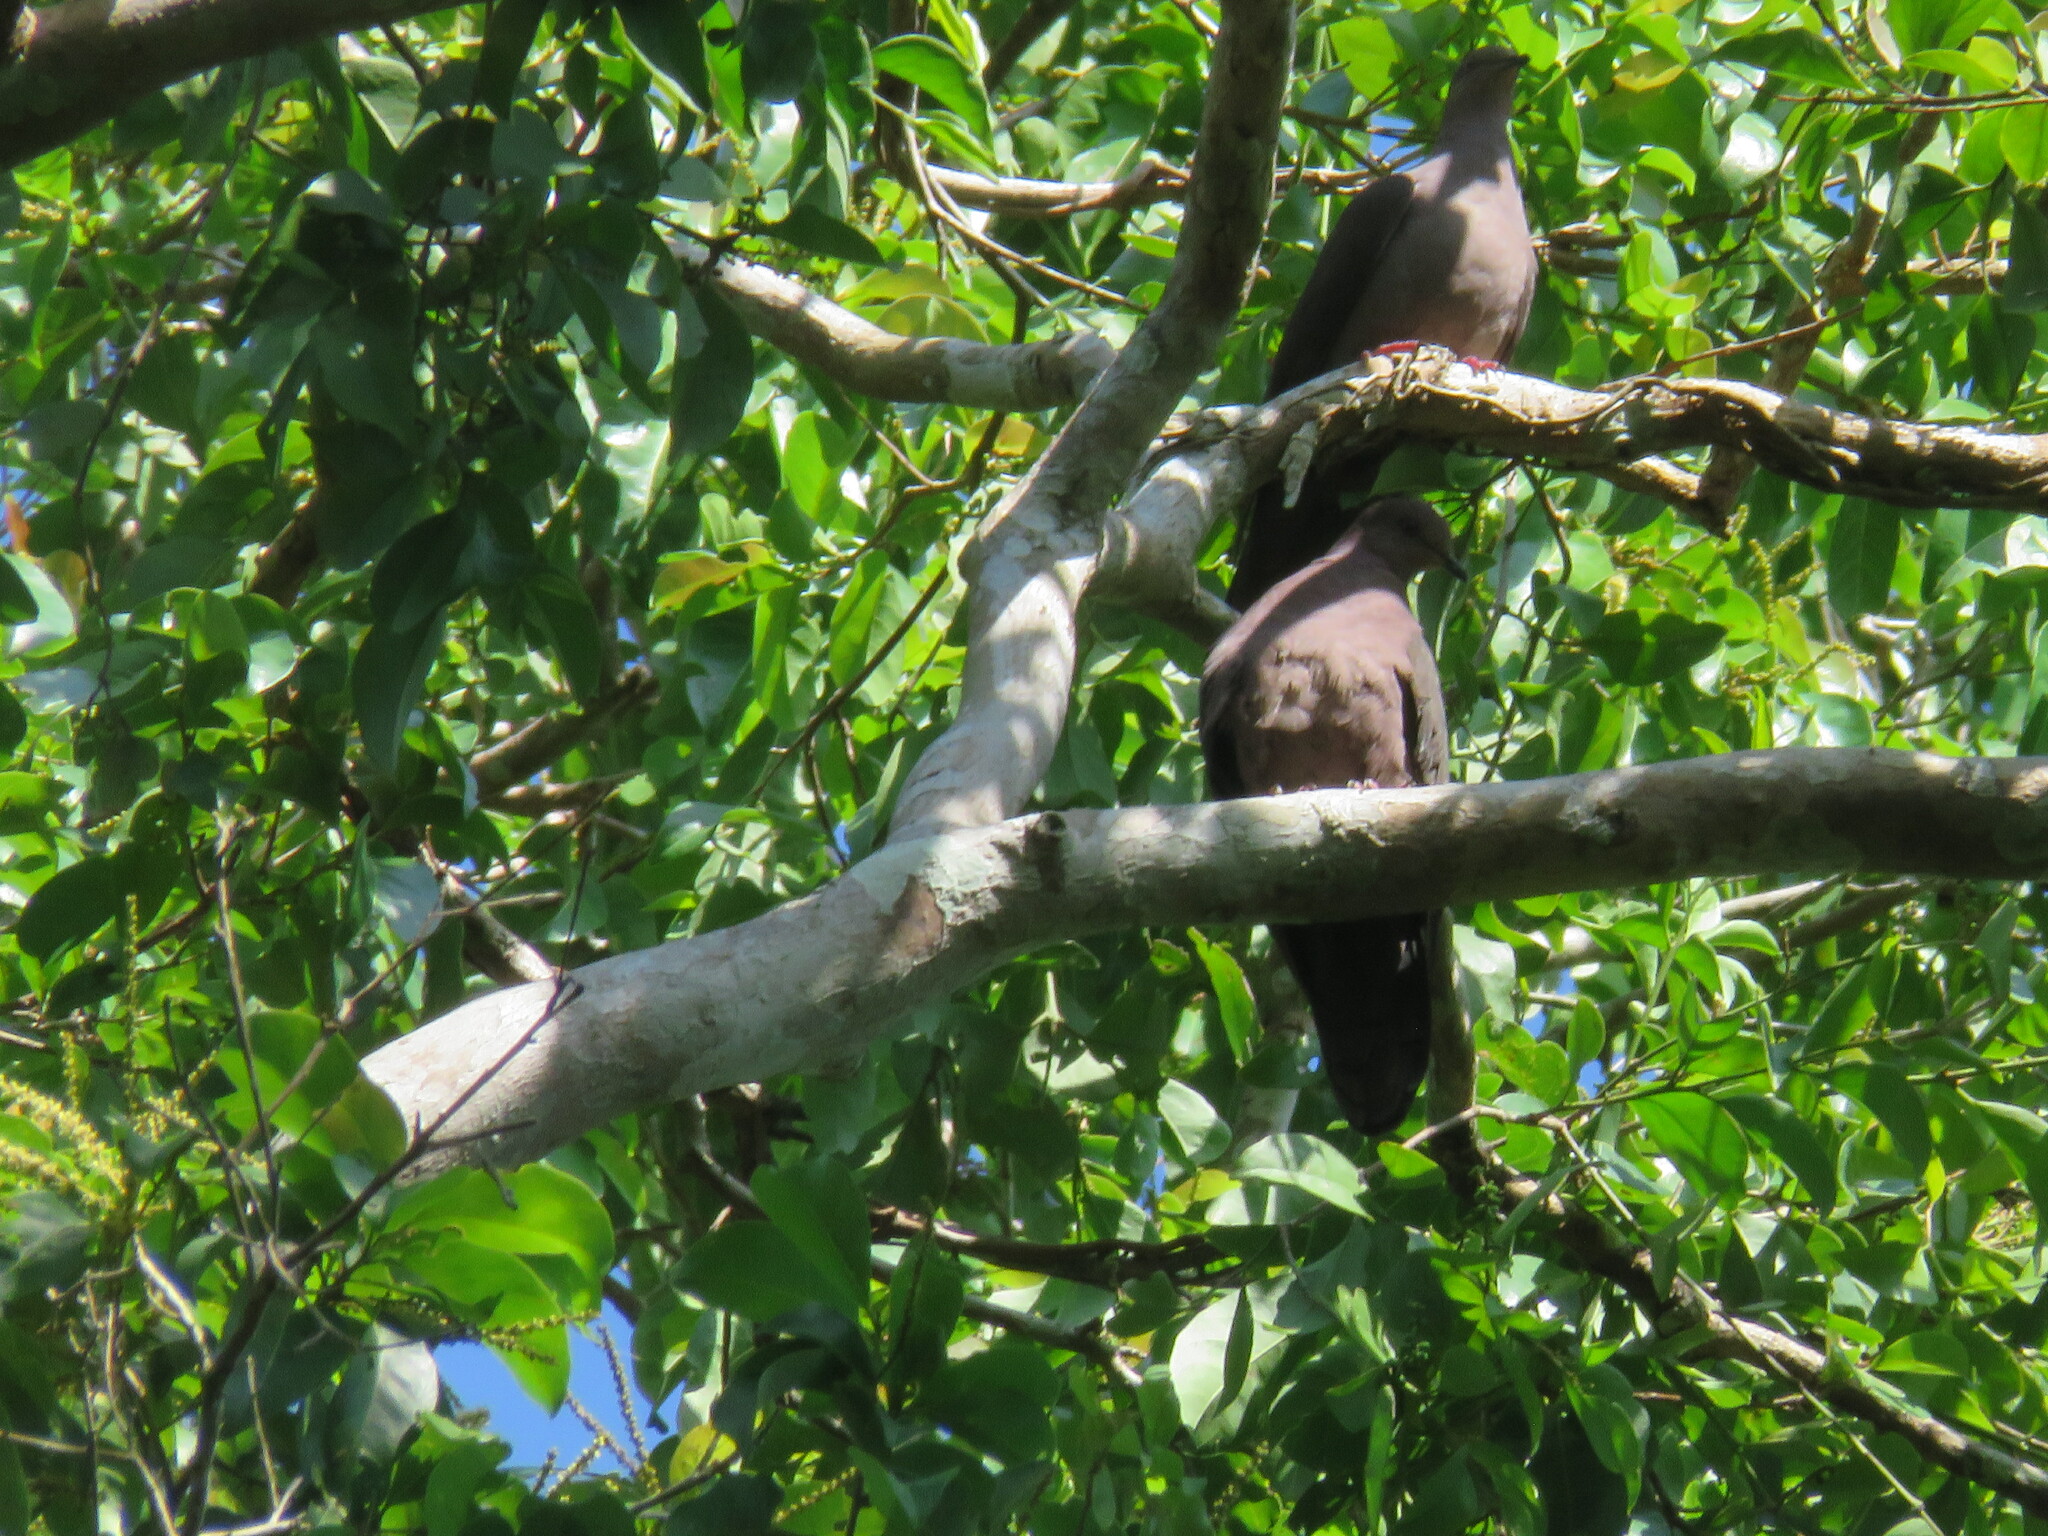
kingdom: Animalia
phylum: Chordata
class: Aves
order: Columbiformes
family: Columbidae
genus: Patagioenas
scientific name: Patagioenas subvinacea
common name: Ruddy pigeon
